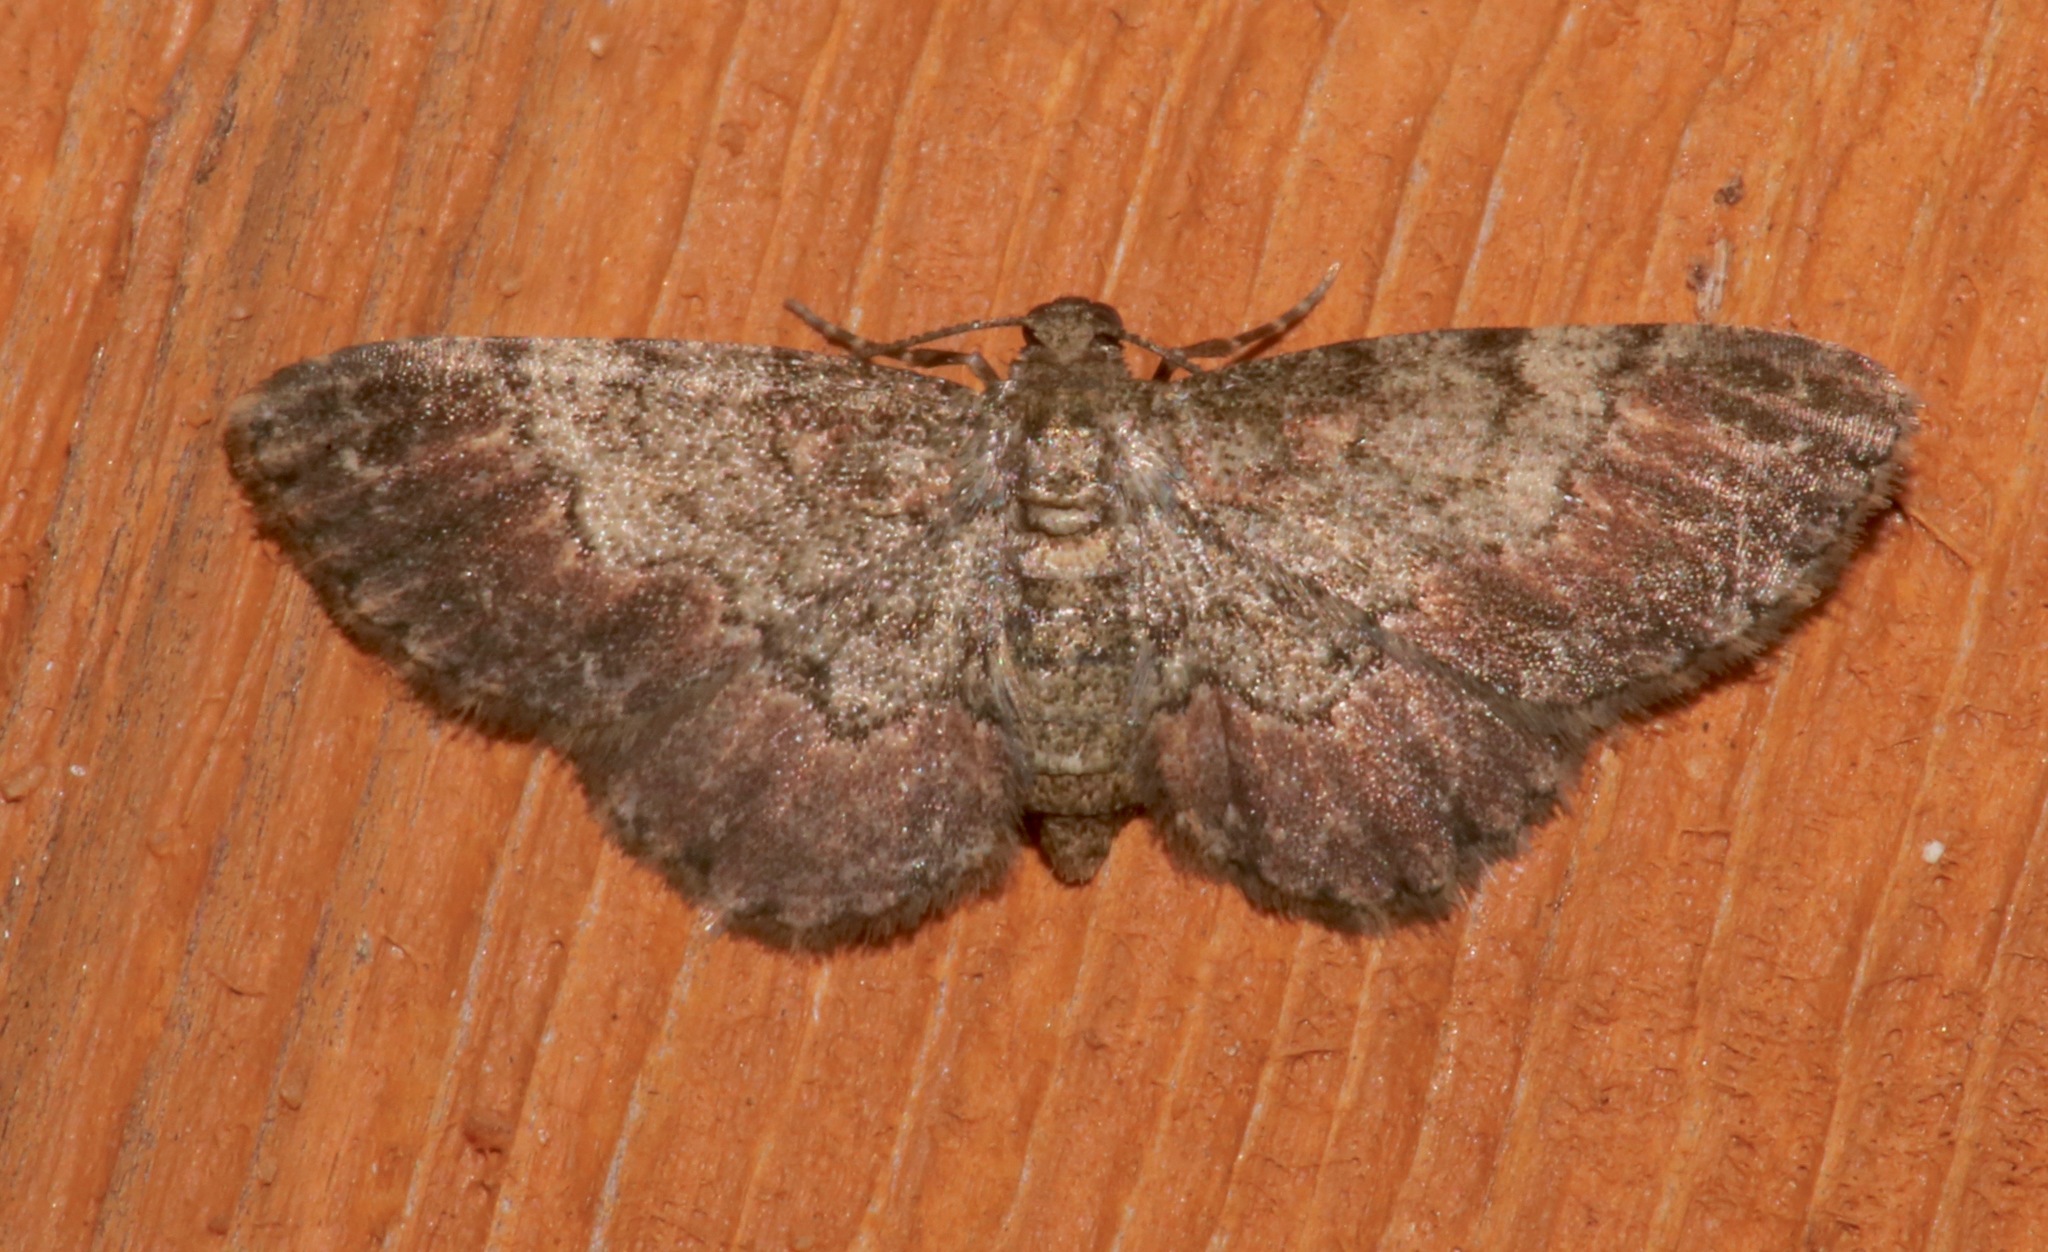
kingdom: Animalia
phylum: Arthropoda
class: Insecta
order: Lepidoptera
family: Geometridae
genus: Glenoides
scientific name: Glenoides texanaria
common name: Texas gray
